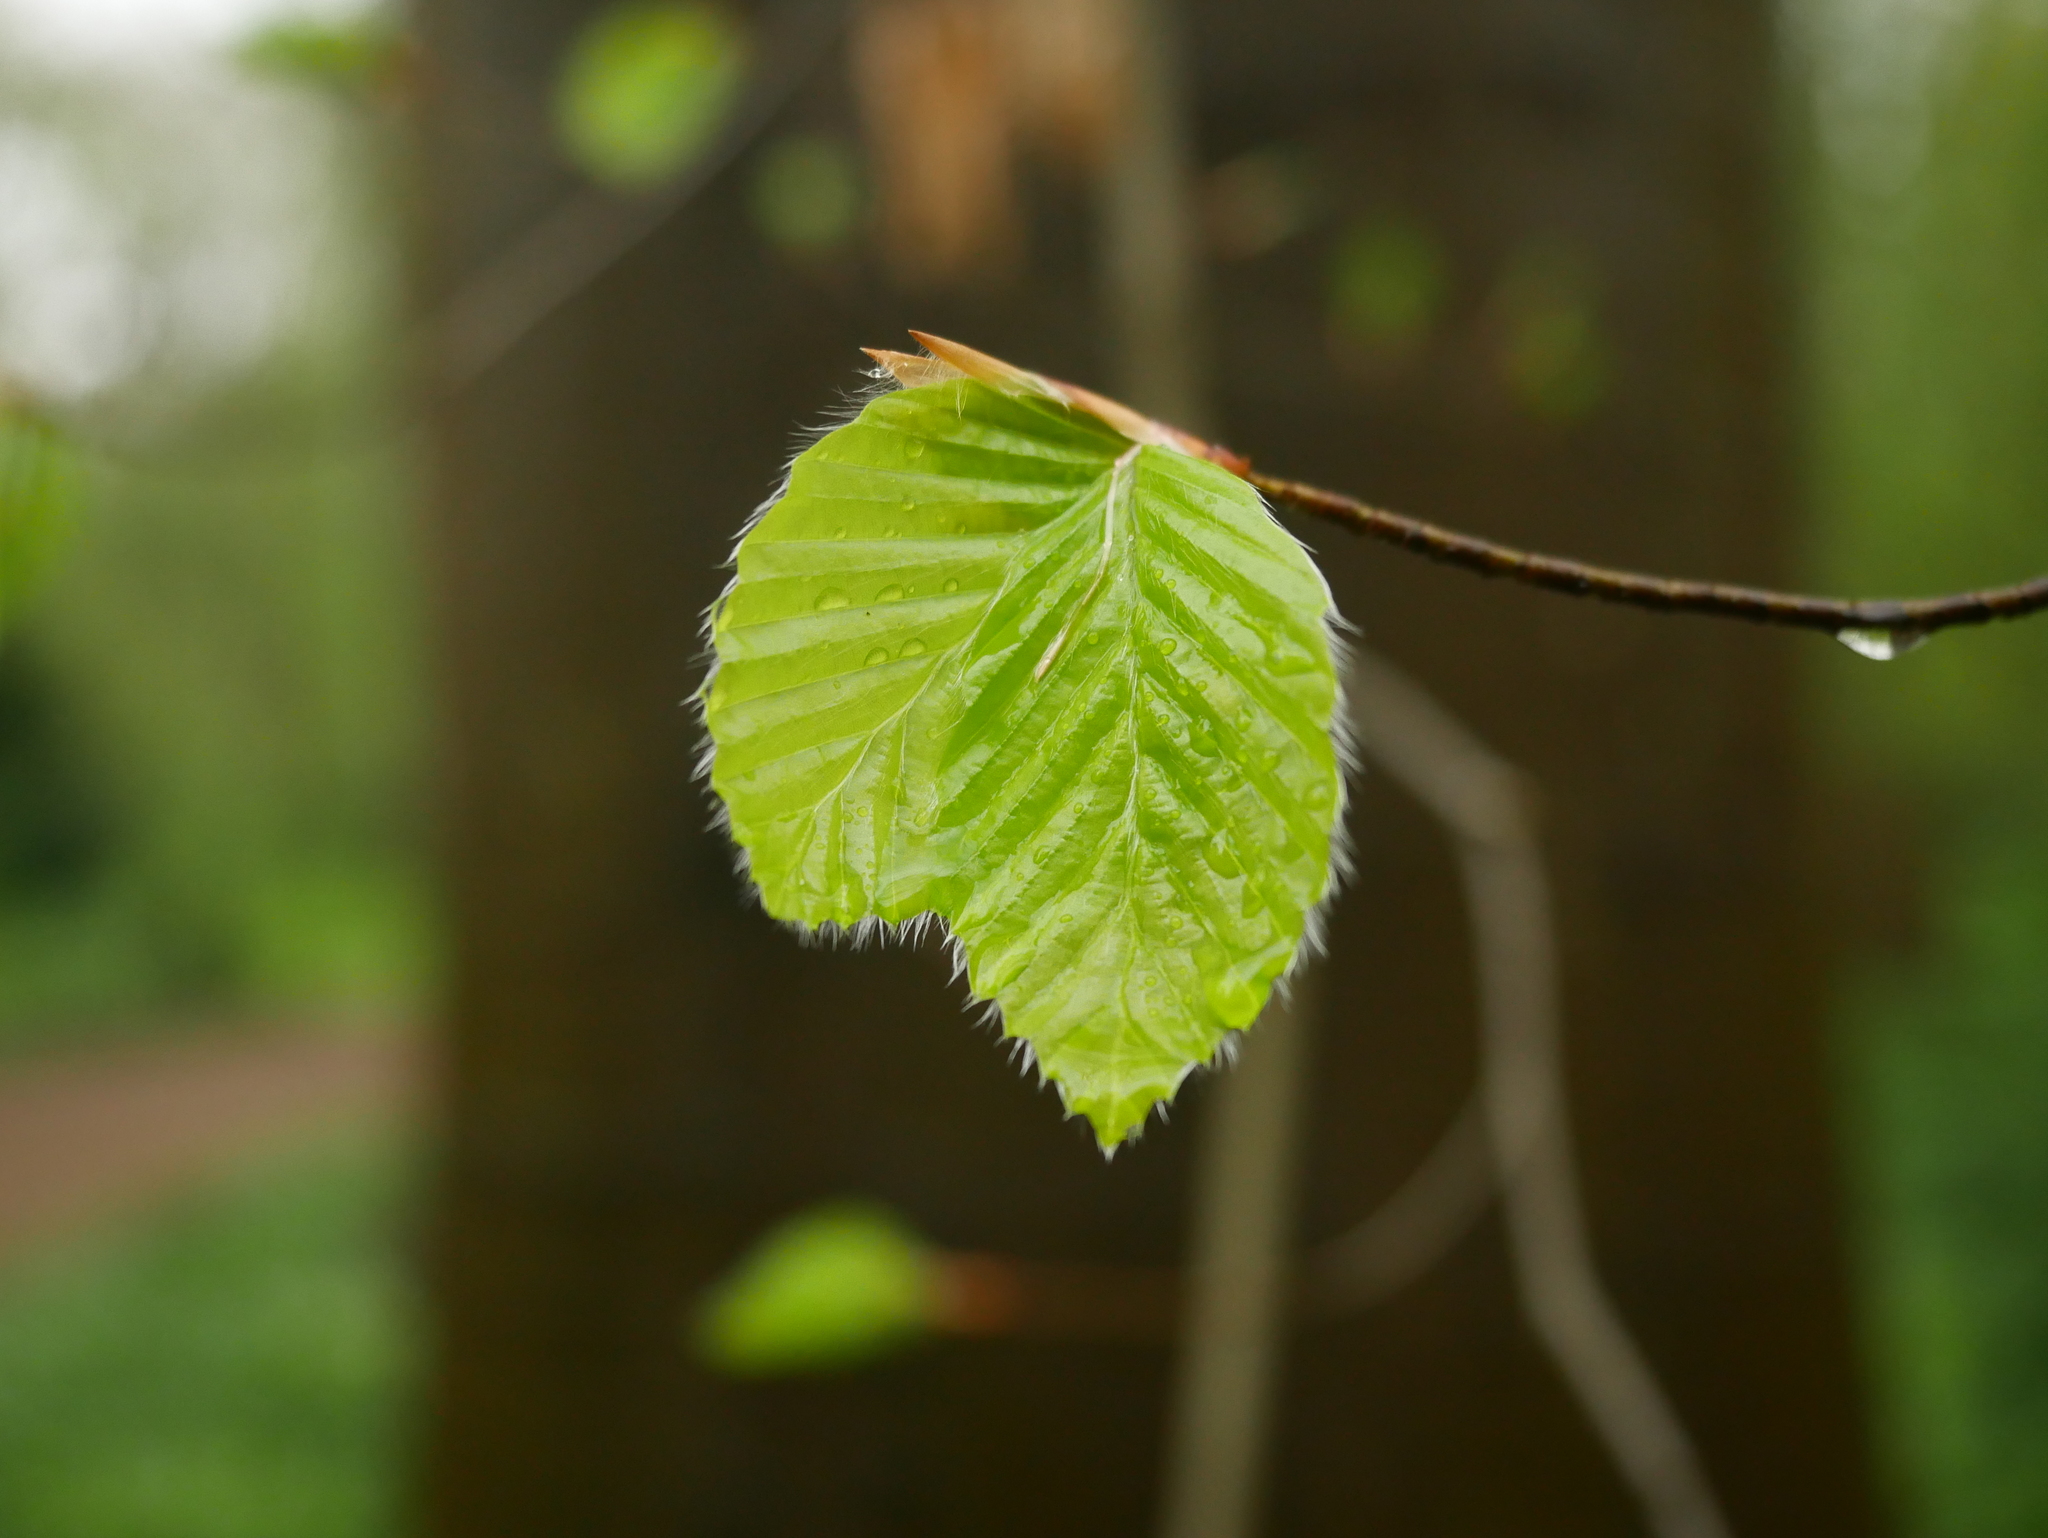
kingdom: Plantae
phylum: Tracheophyta
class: Magnoliopsida
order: Fagales
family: Fagaceae
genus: Fagus
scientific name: Fagus sylvatica
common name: Beech
